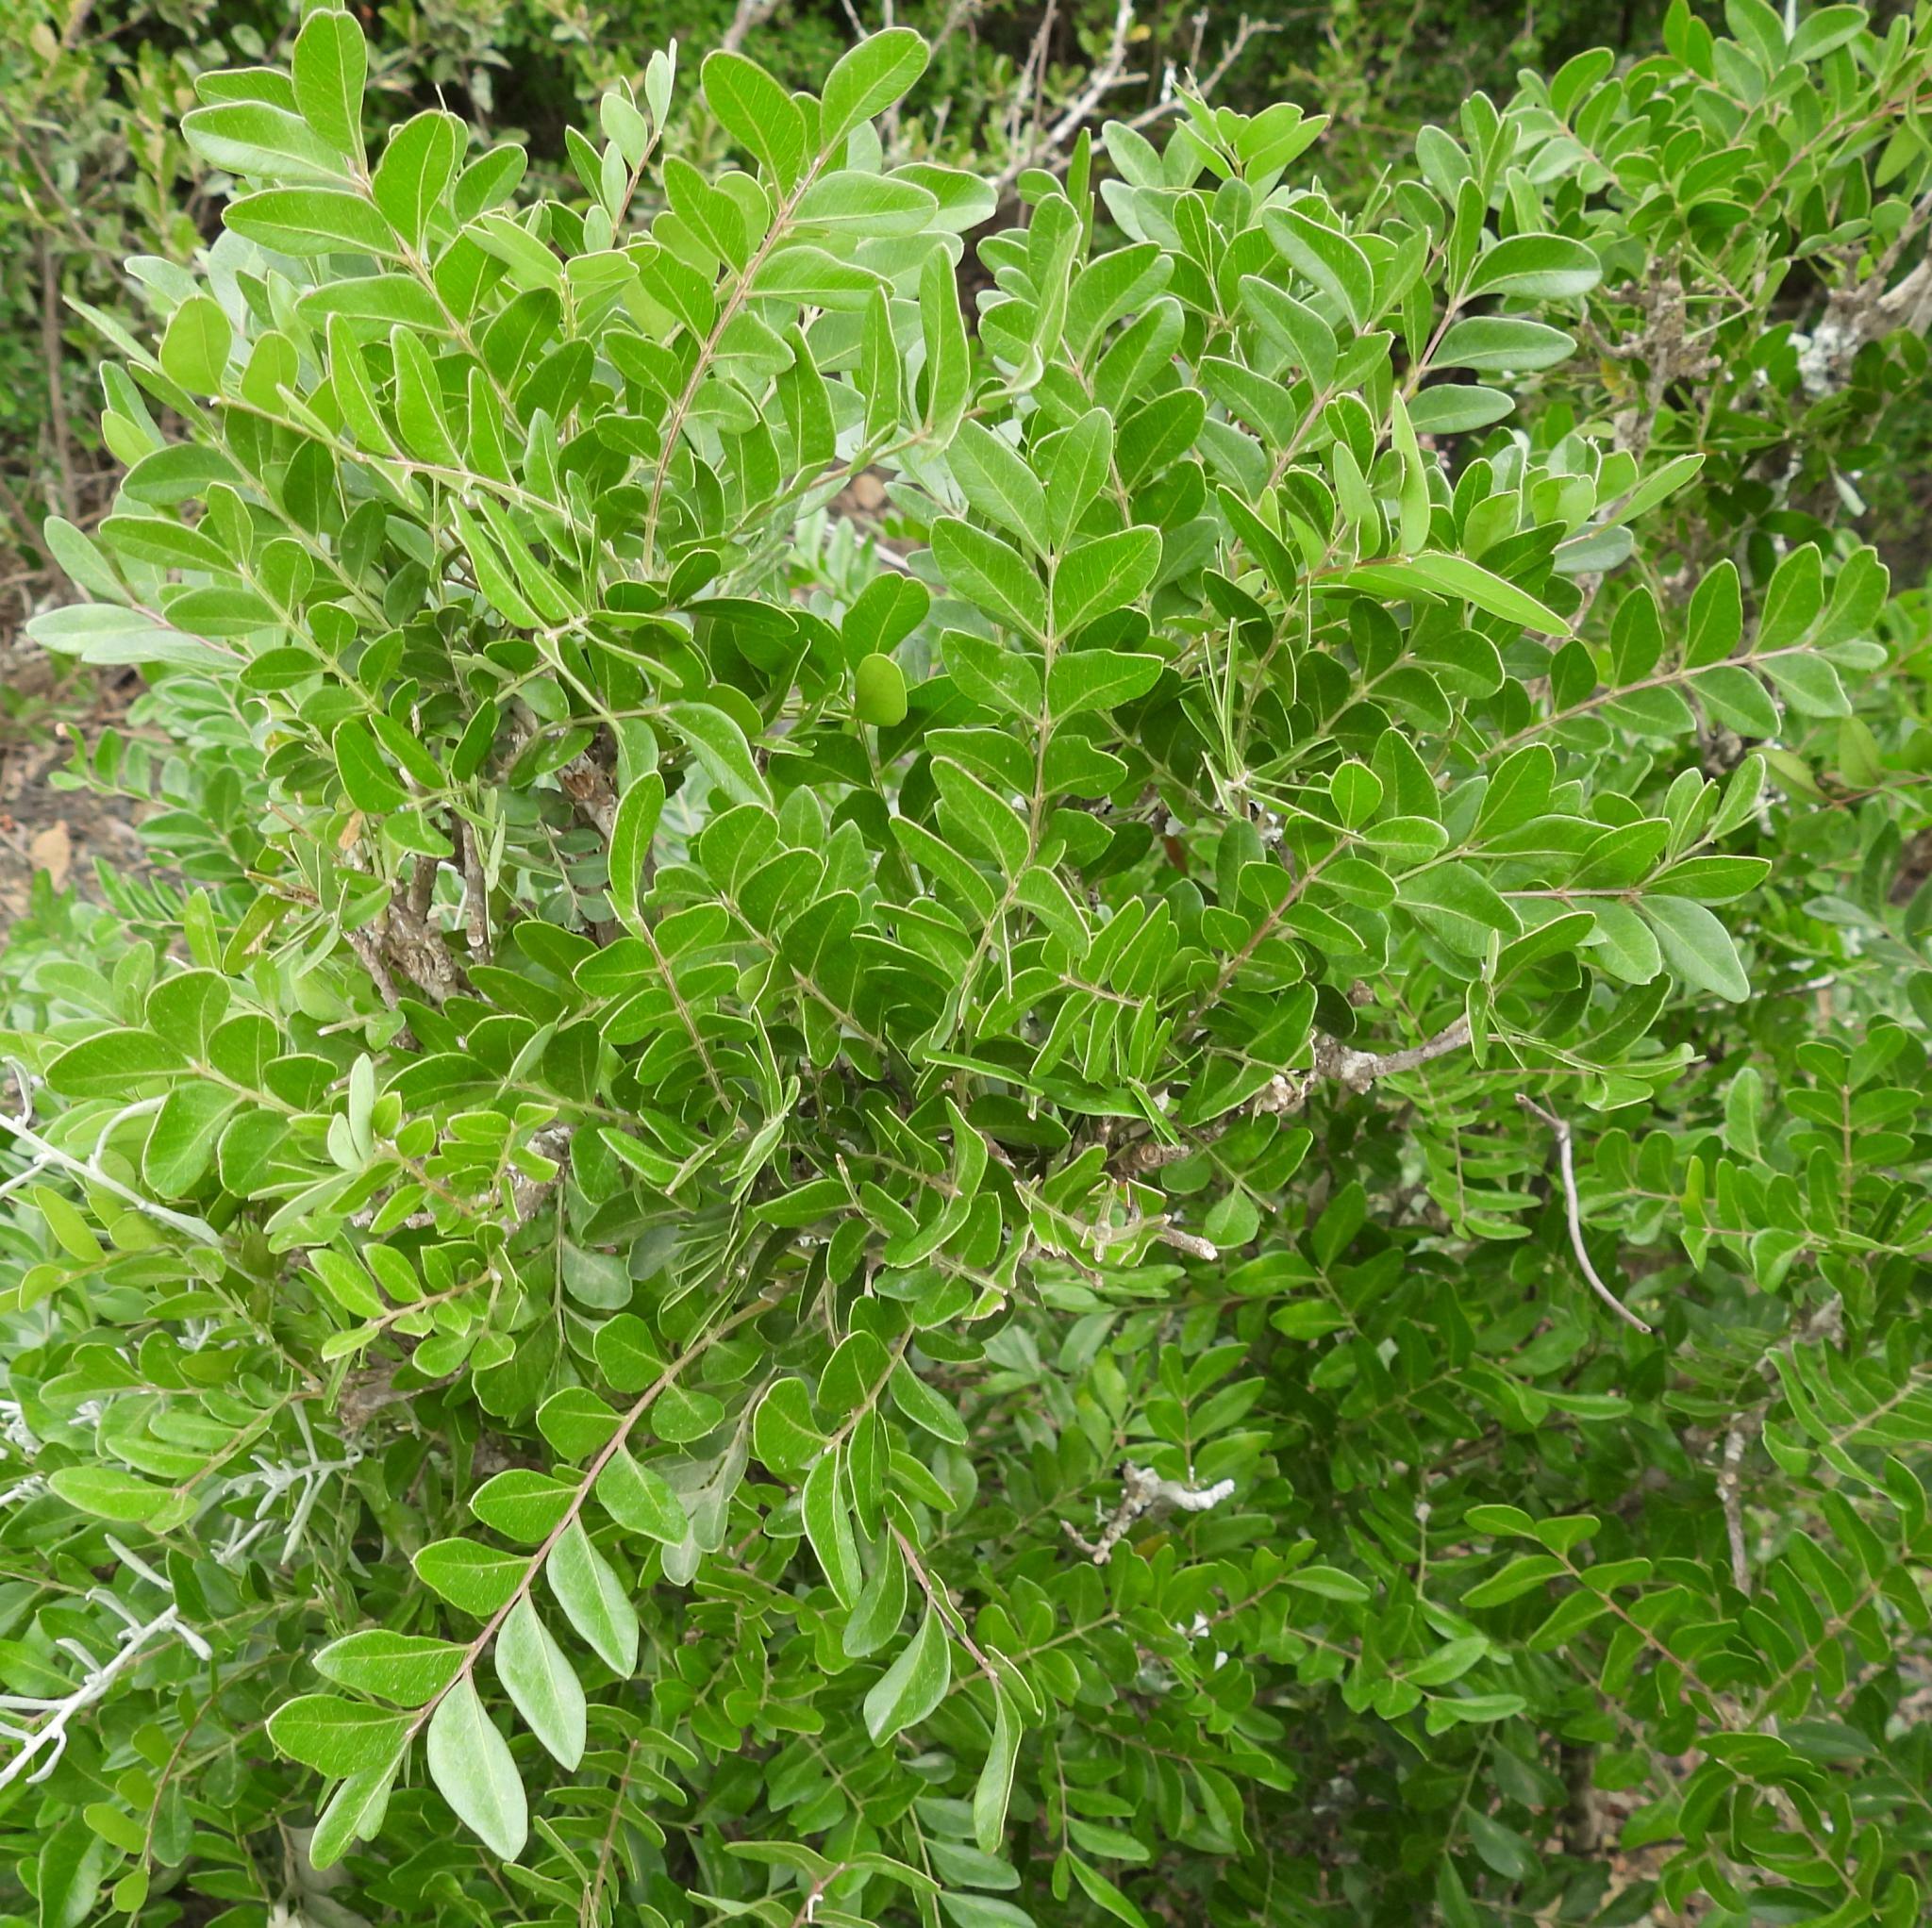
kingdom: Plantae
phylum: Tracheophyta
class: Magnoliopsida
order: Sapindales
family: Rutaceae
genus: Ptaeroxylon
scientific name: Ptaeroxylon obliquum
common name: Sneezewood
